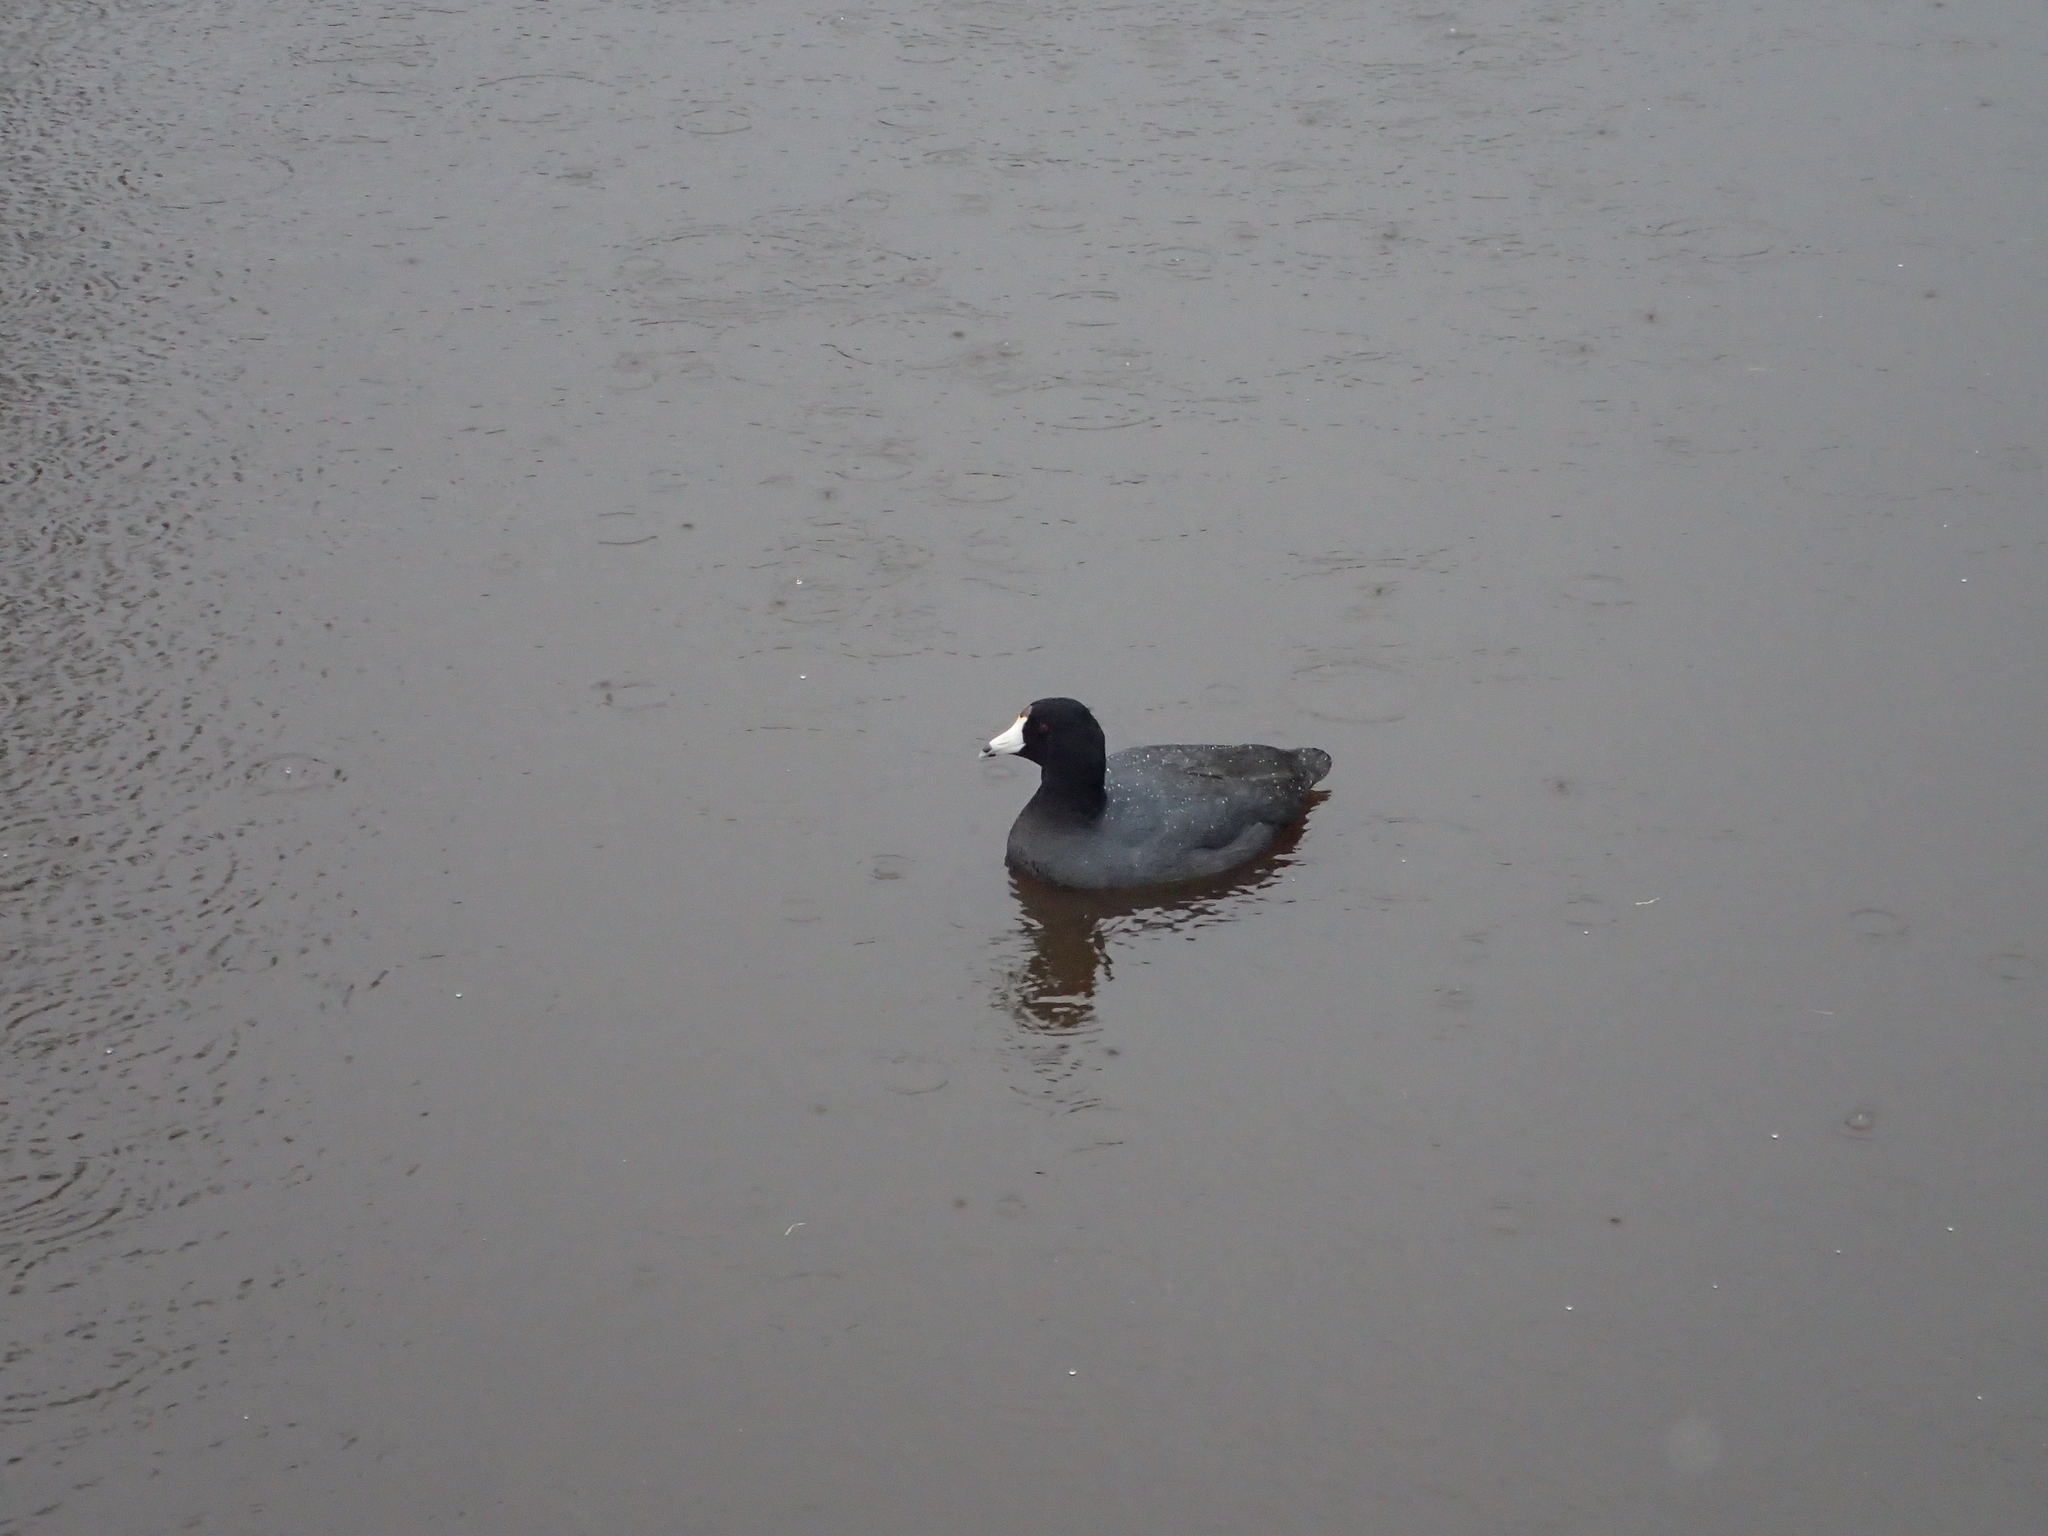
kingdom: Animalia
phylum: Chordata
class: Aves
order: Gruiformes
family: Rallidae
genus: Fulica
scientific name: Fulica americana
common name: American coot
